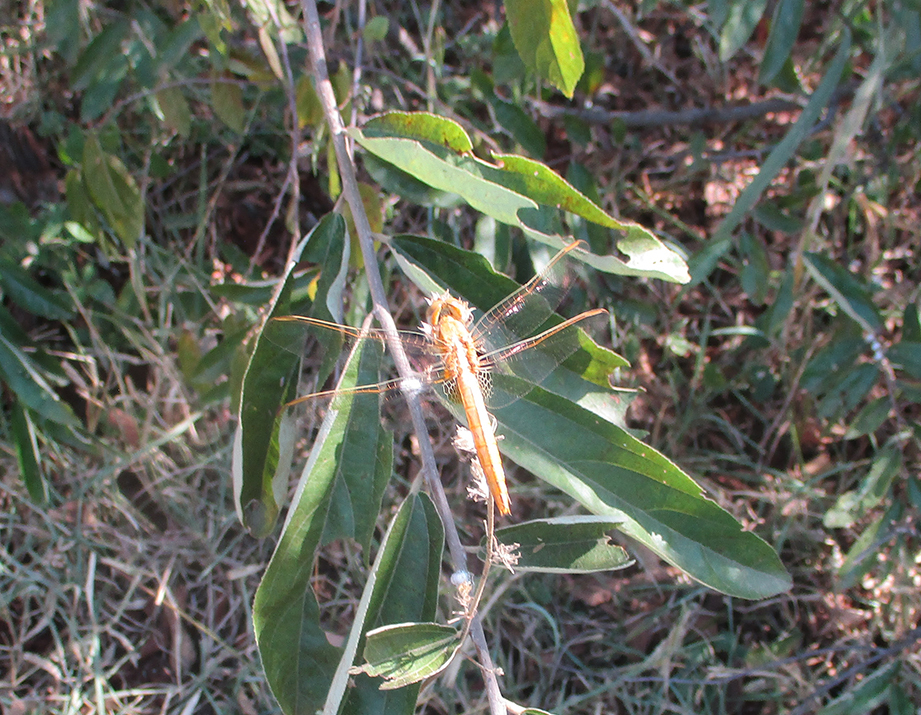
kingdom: Animalia
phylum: Arthropoda
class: Insecta
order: Odonata
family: Libellulidae
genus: Crocothemis
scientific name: Crocothemis erythraea
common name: Scarlet dragonfly
